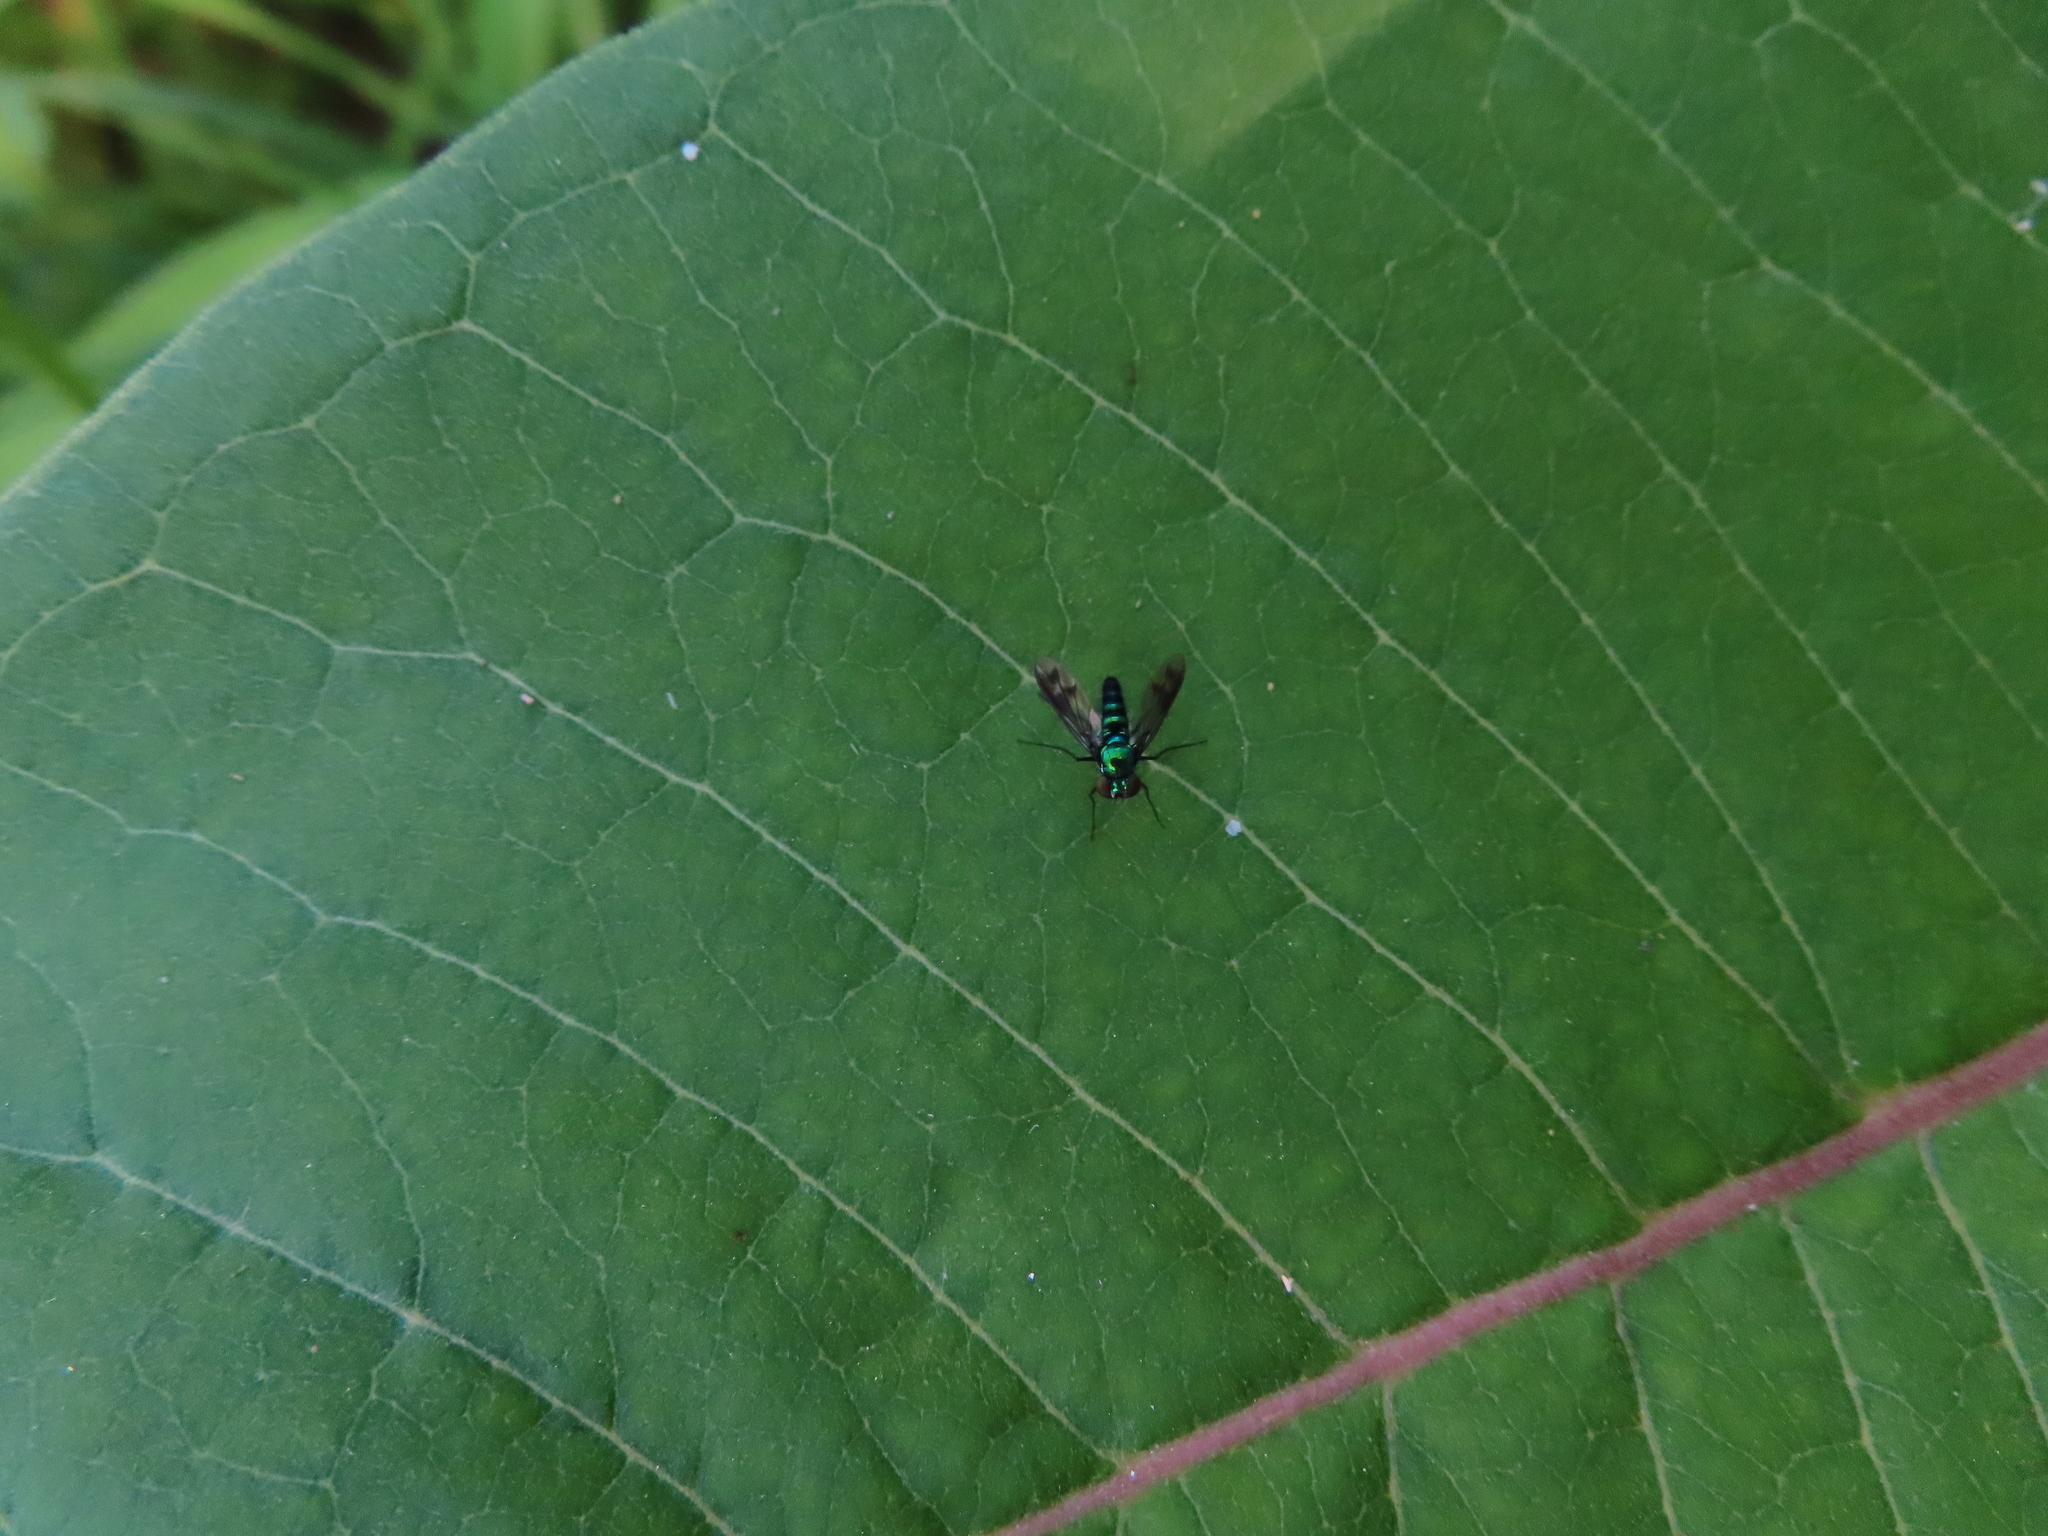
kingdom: Animalia
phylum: Arthropoda
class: Insecta
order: Diptera
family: Dolichopodidae
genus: Condylostylus
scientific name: Condylostylus patibulatus
